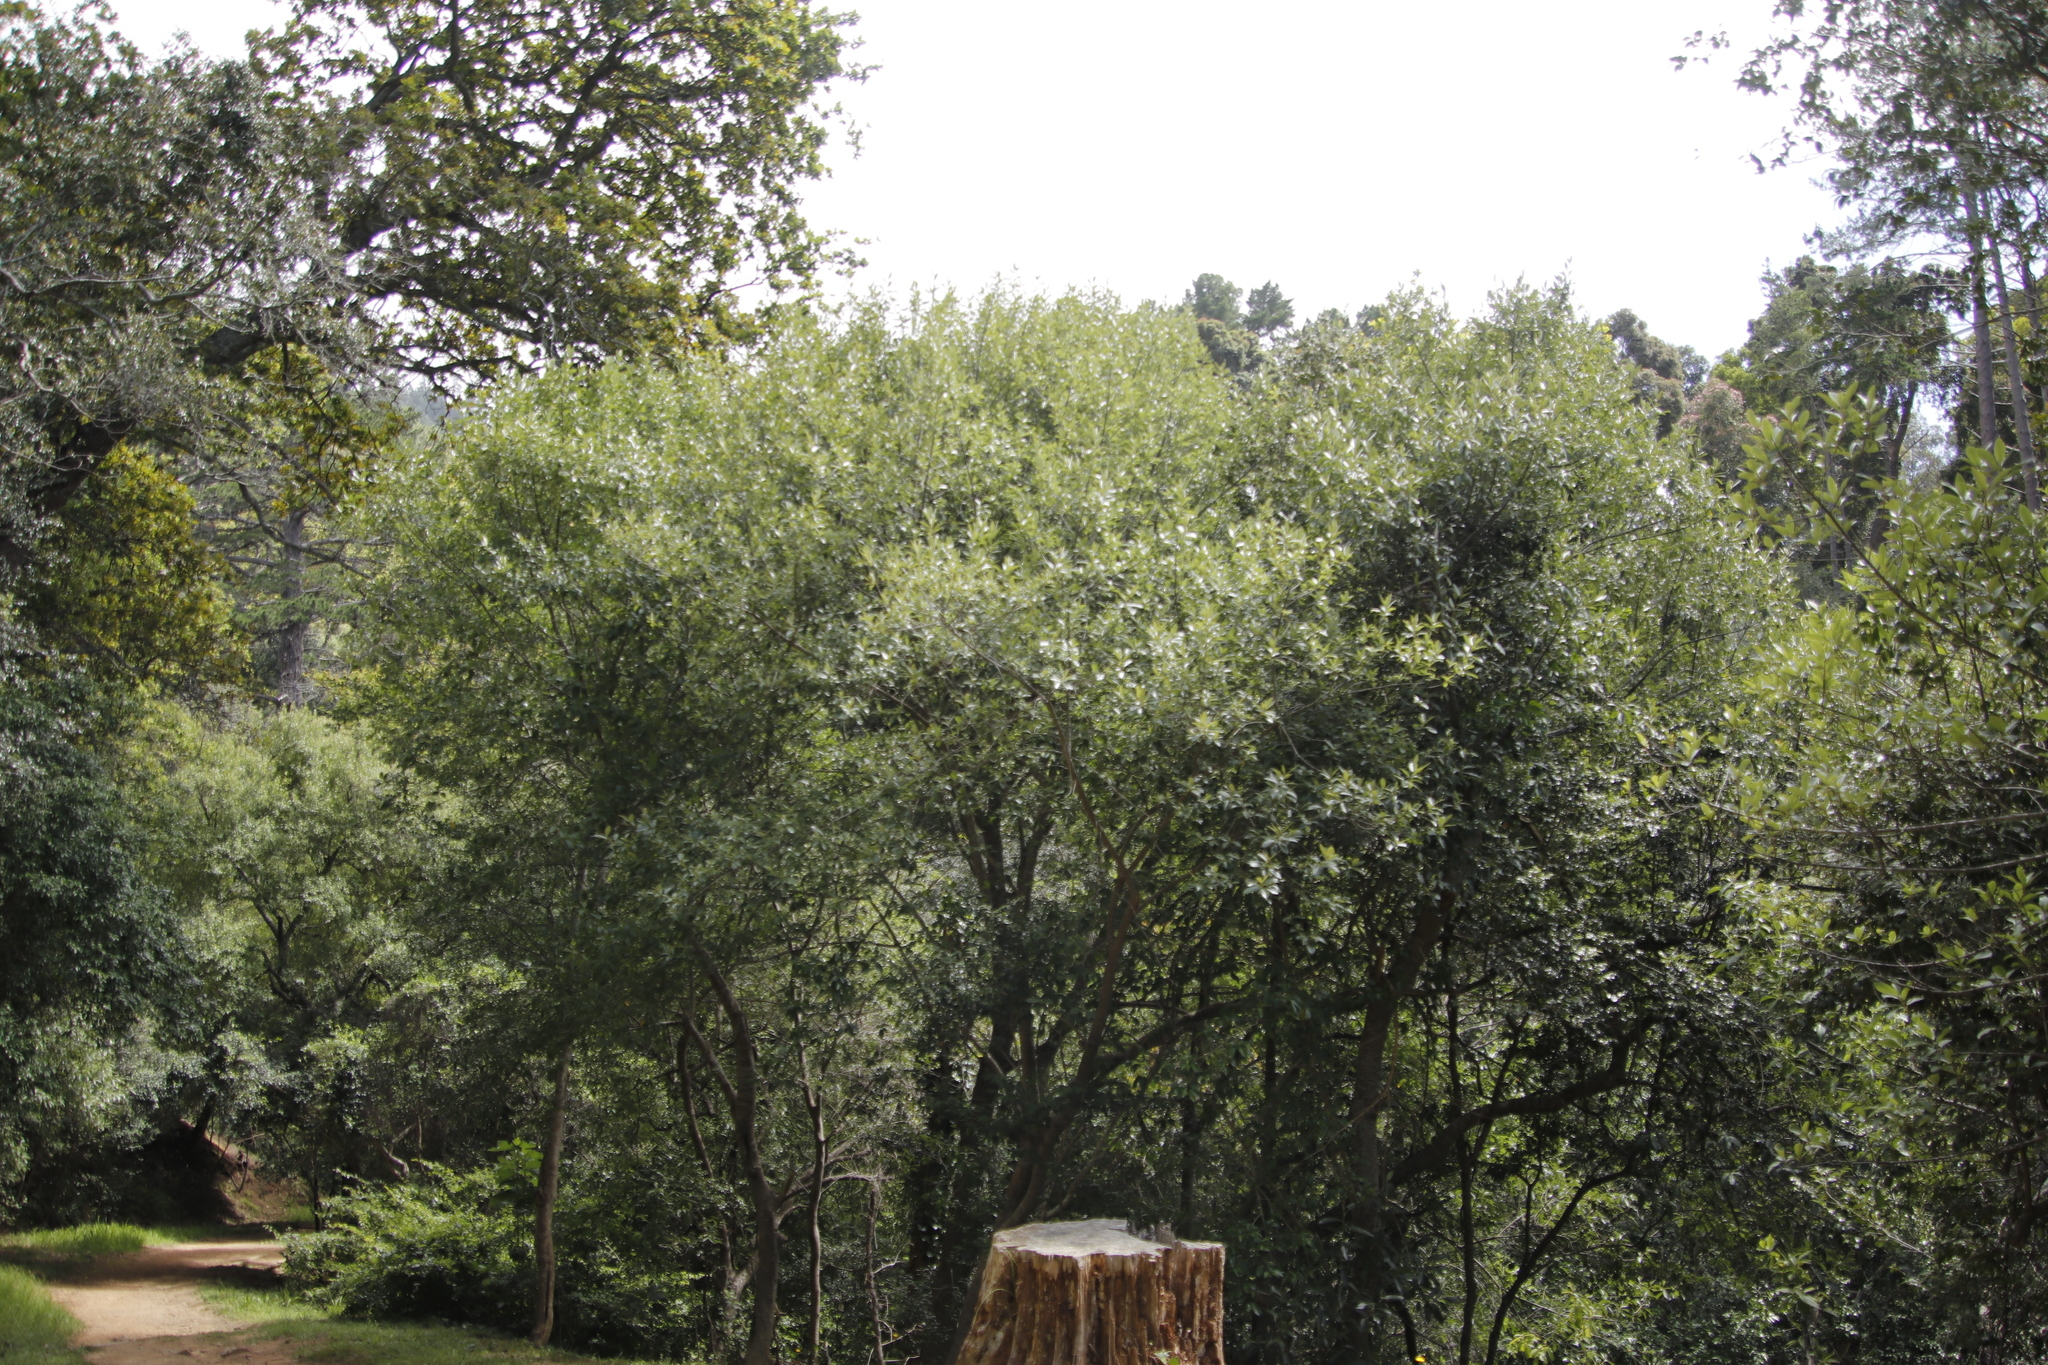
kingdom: Plantae
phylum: Tracheophyta
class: Magnoliopsida
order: Malpighiales
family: Achariaceae
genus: Kiggelaria
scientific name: Kiggelaria africana
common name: Wild peach
